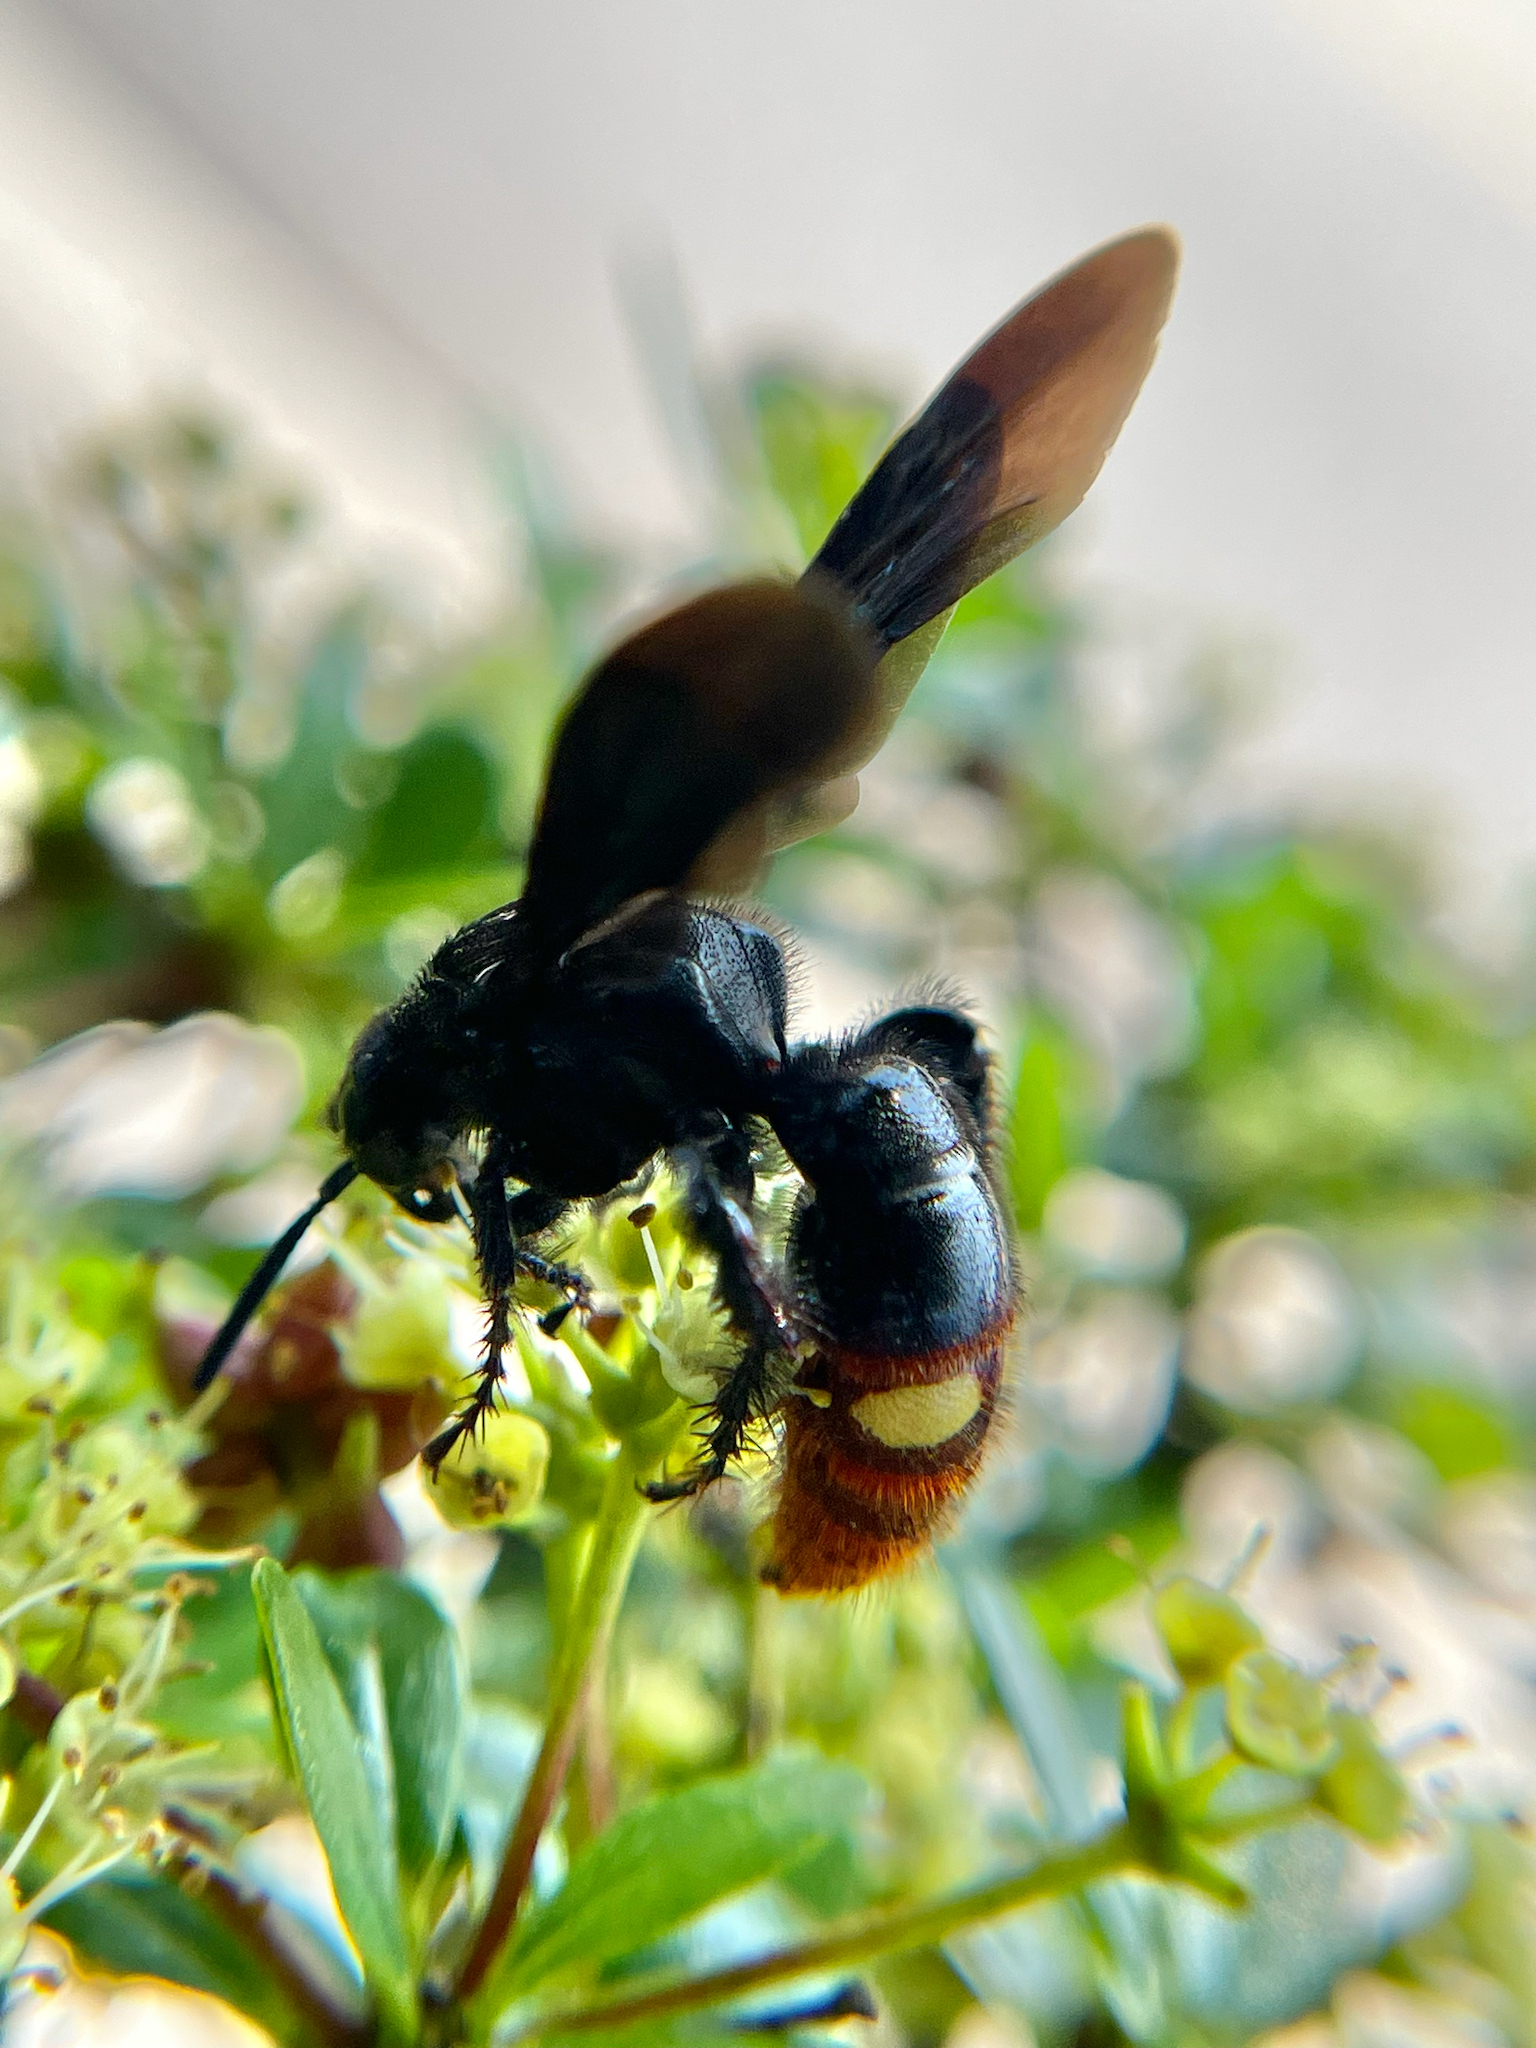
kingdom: Animalia
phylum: Arthropoda
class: Insecta
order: Hymenoptera
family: Scoliidae
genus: Scolia
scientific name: Scolia dubia
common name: Blue-winged scoliid wasp
